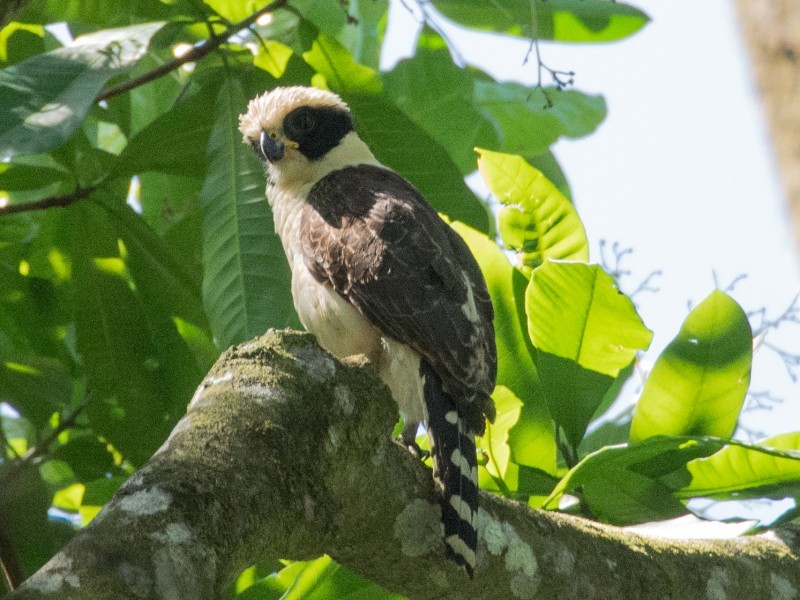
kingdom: Animalia
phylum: Chordata
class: Aves
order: Falconiformes
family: Falconidae
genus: Herpetotheres
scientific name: Herpetotheres cachinnans
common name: Laughing falcon
